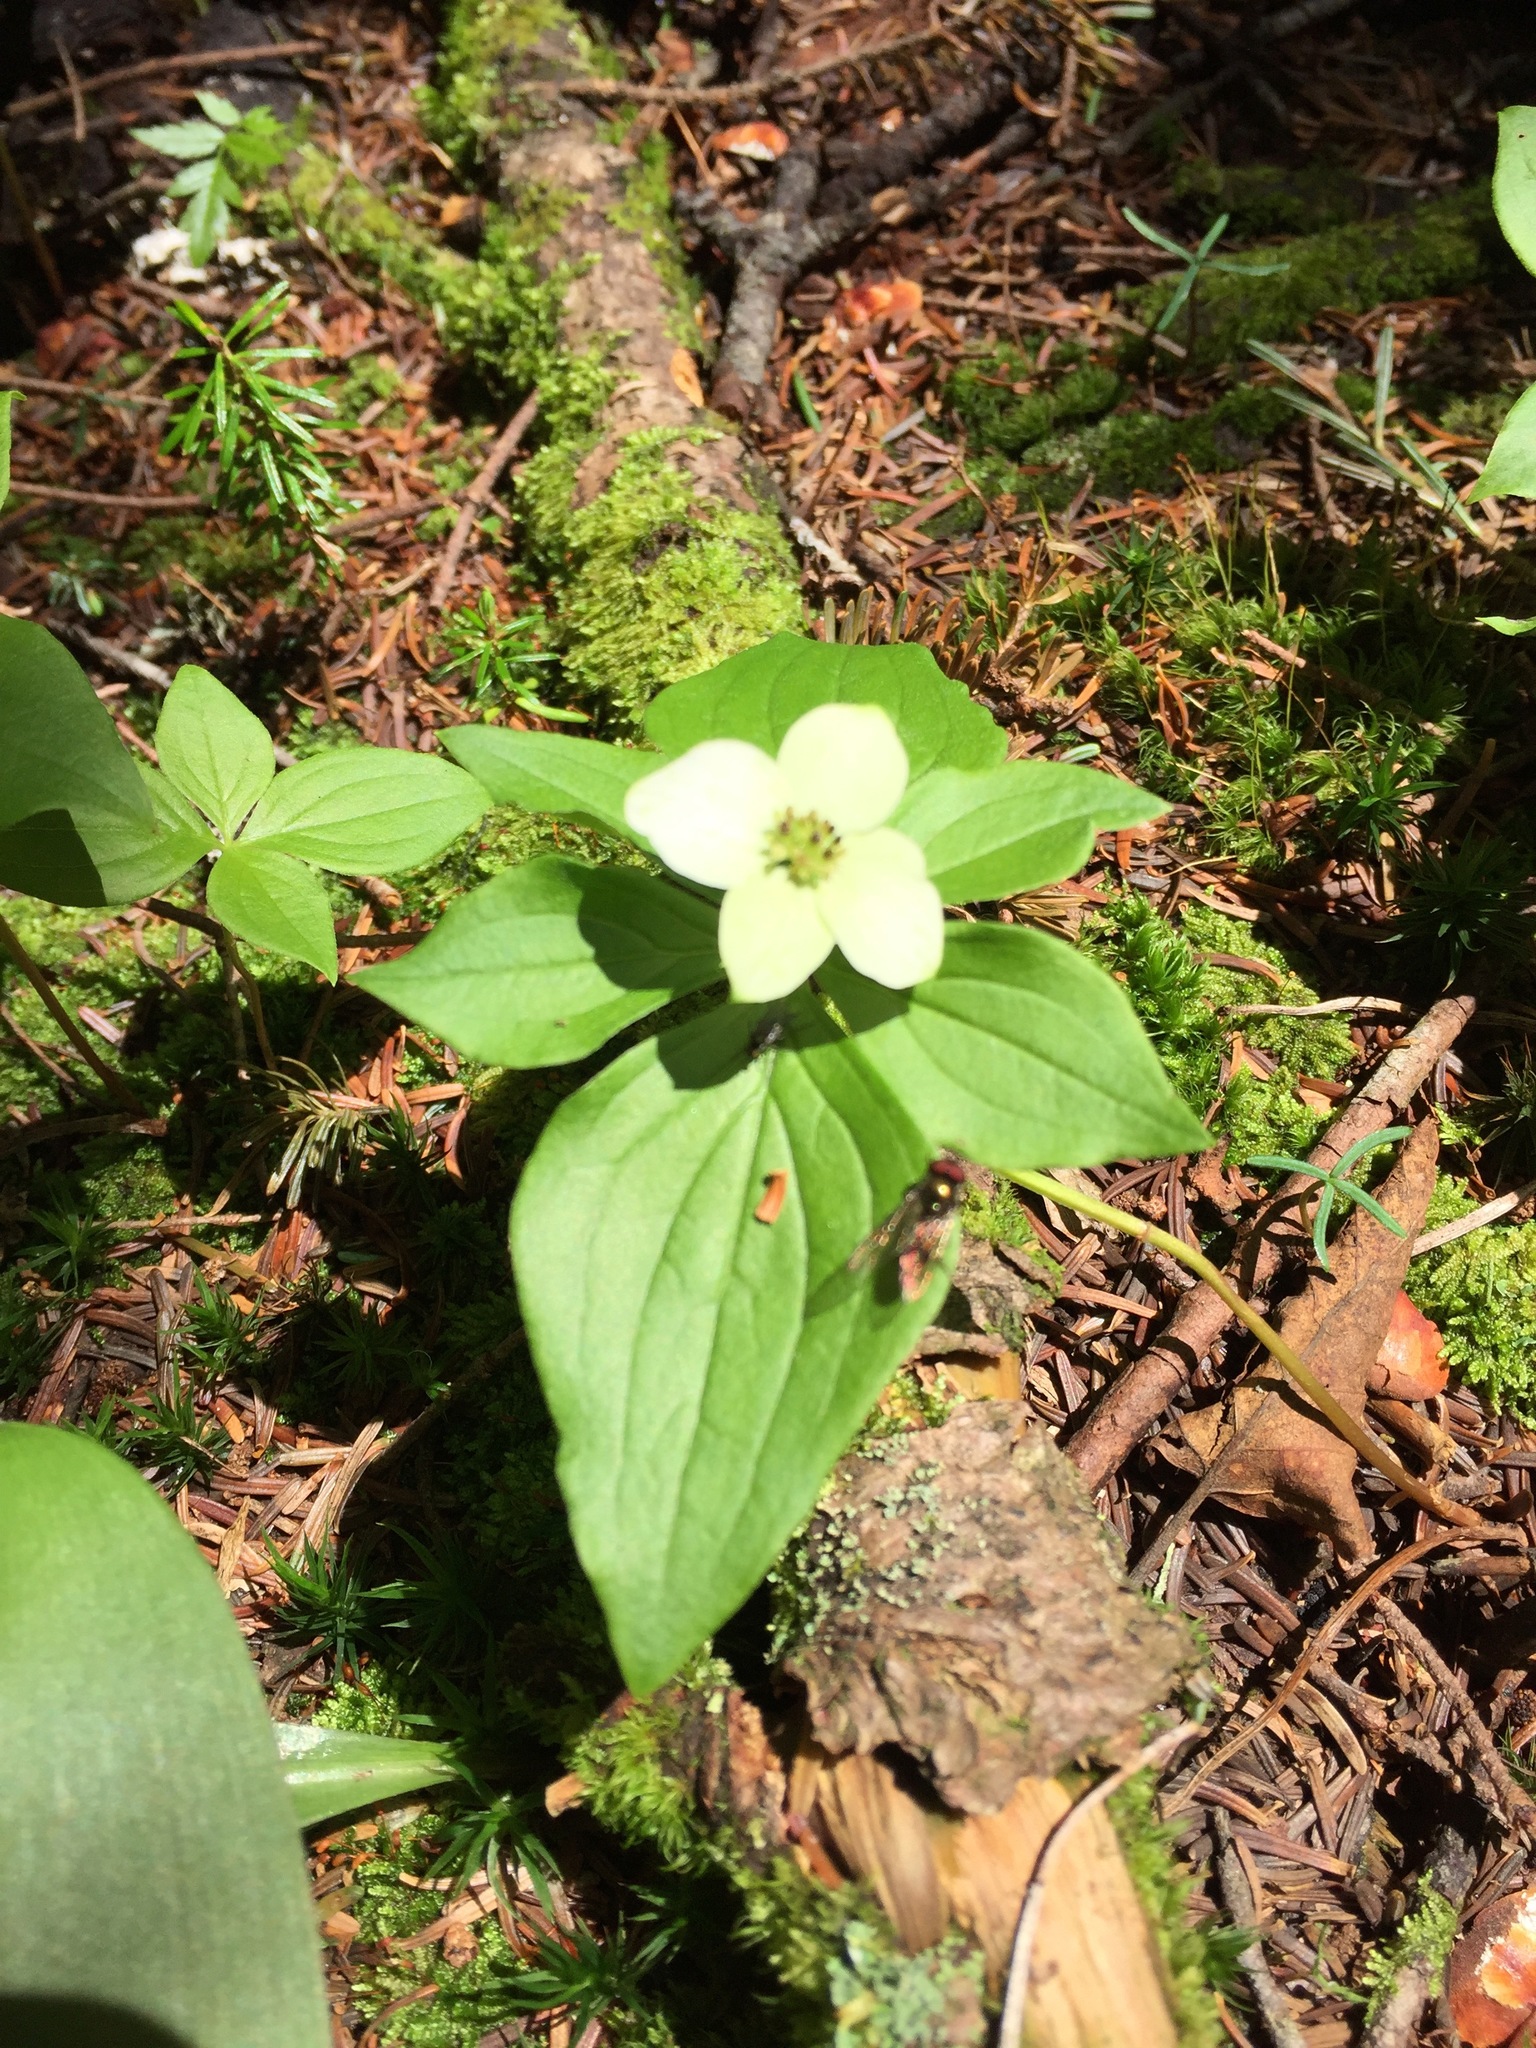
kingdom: Plantae
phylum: Tracheophyta
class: Magnoliopsida
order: Cornales
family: Cornaceae
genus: Cornus
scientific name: Cornus canadensis
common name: Creeping dogwood
